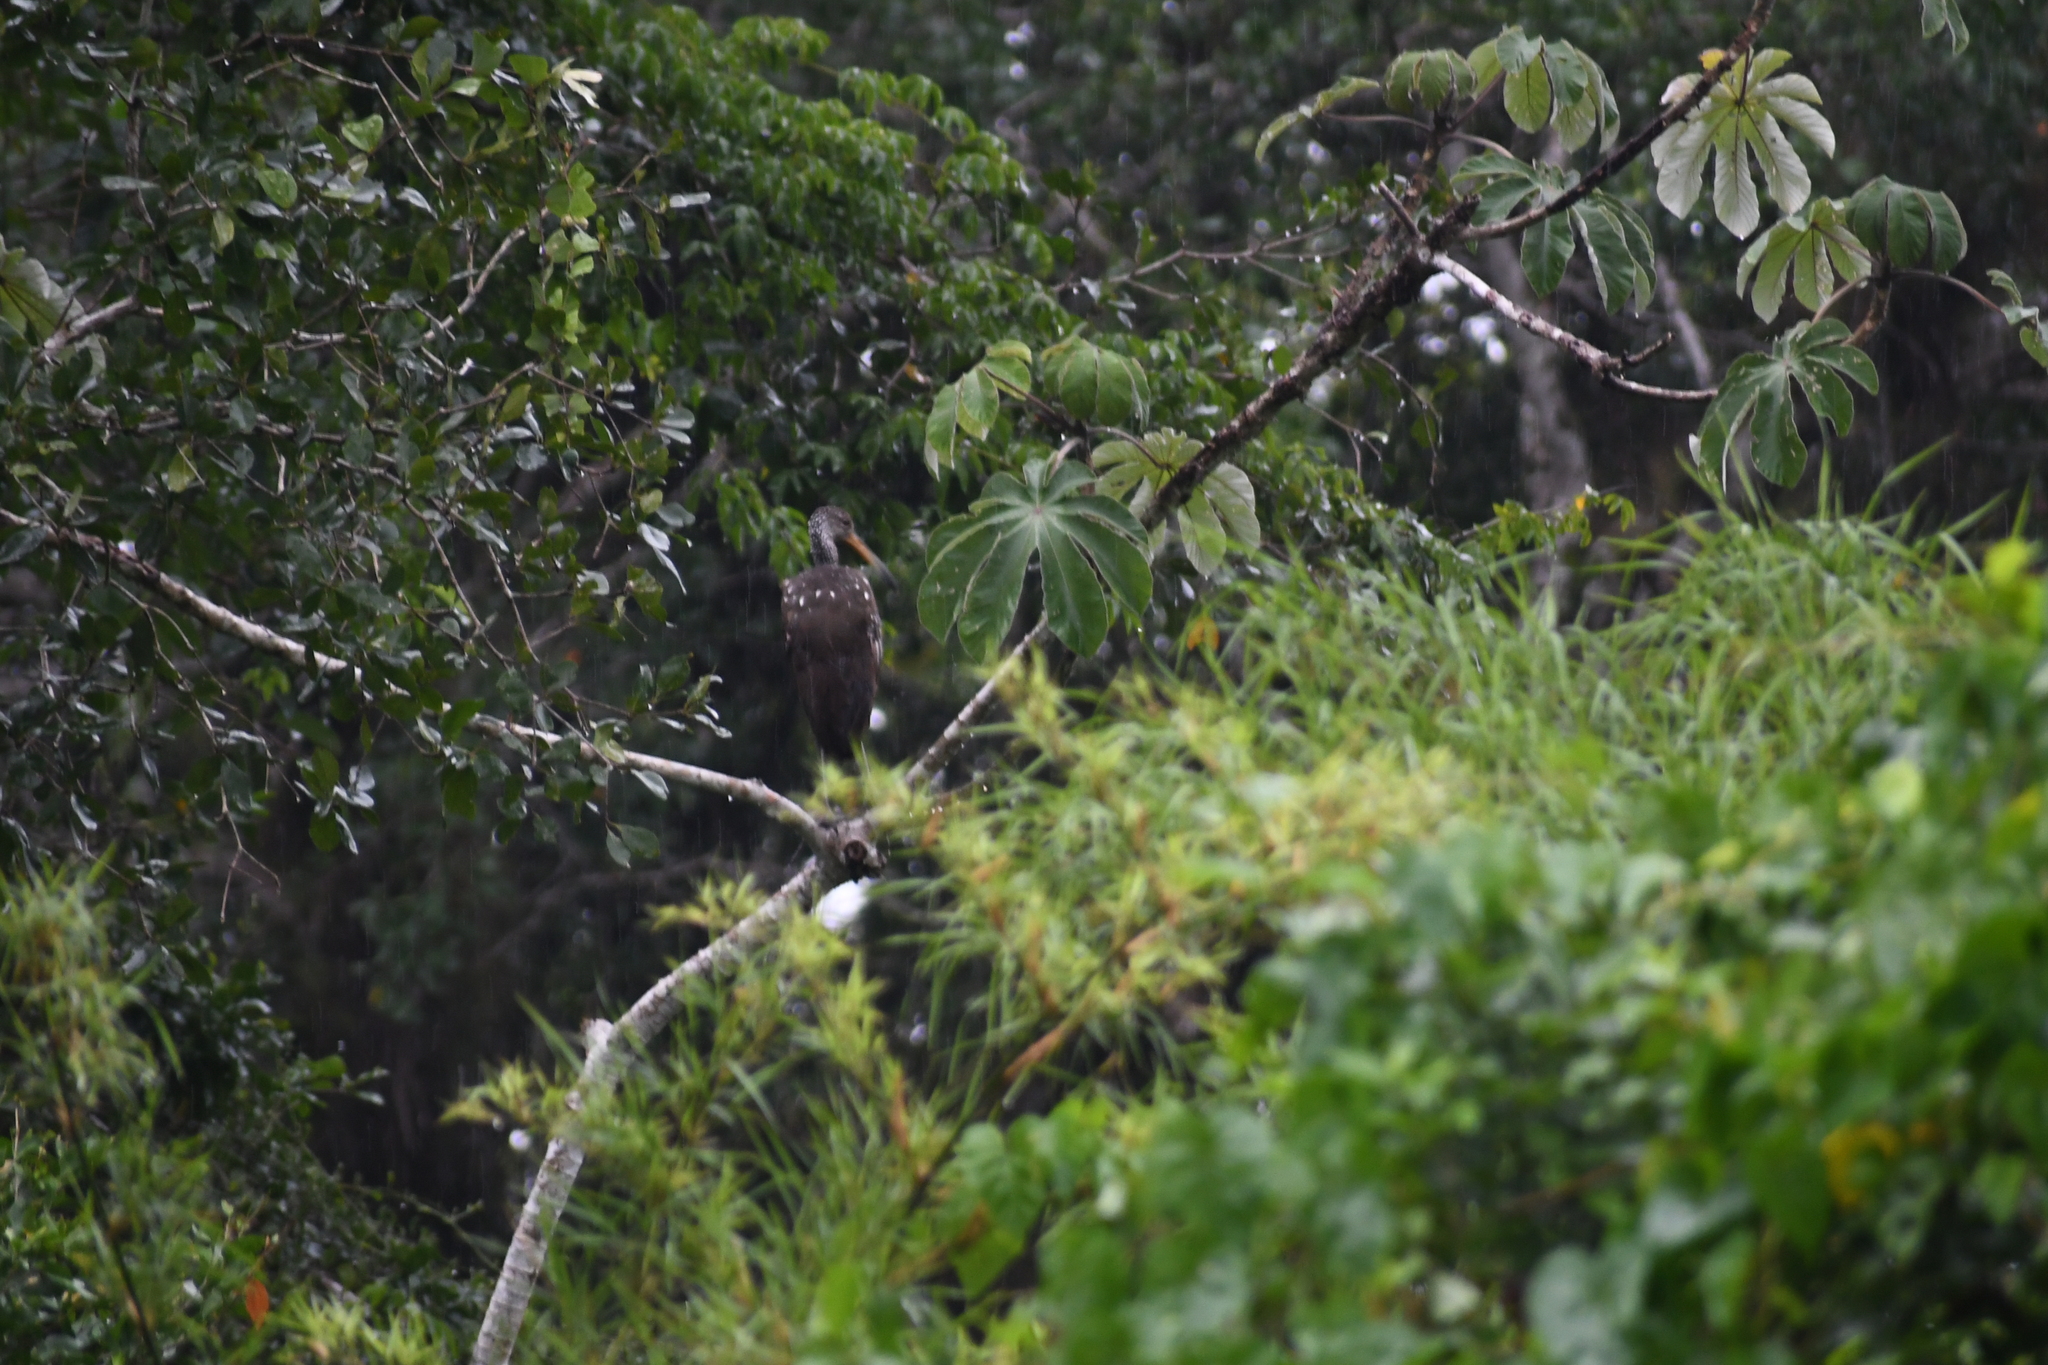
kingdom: Animalia
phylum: Chordata
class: Aves
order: Gruiformes
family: Aramidae
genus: Aramus
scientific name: Aramus guarauna
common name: Limpkin
